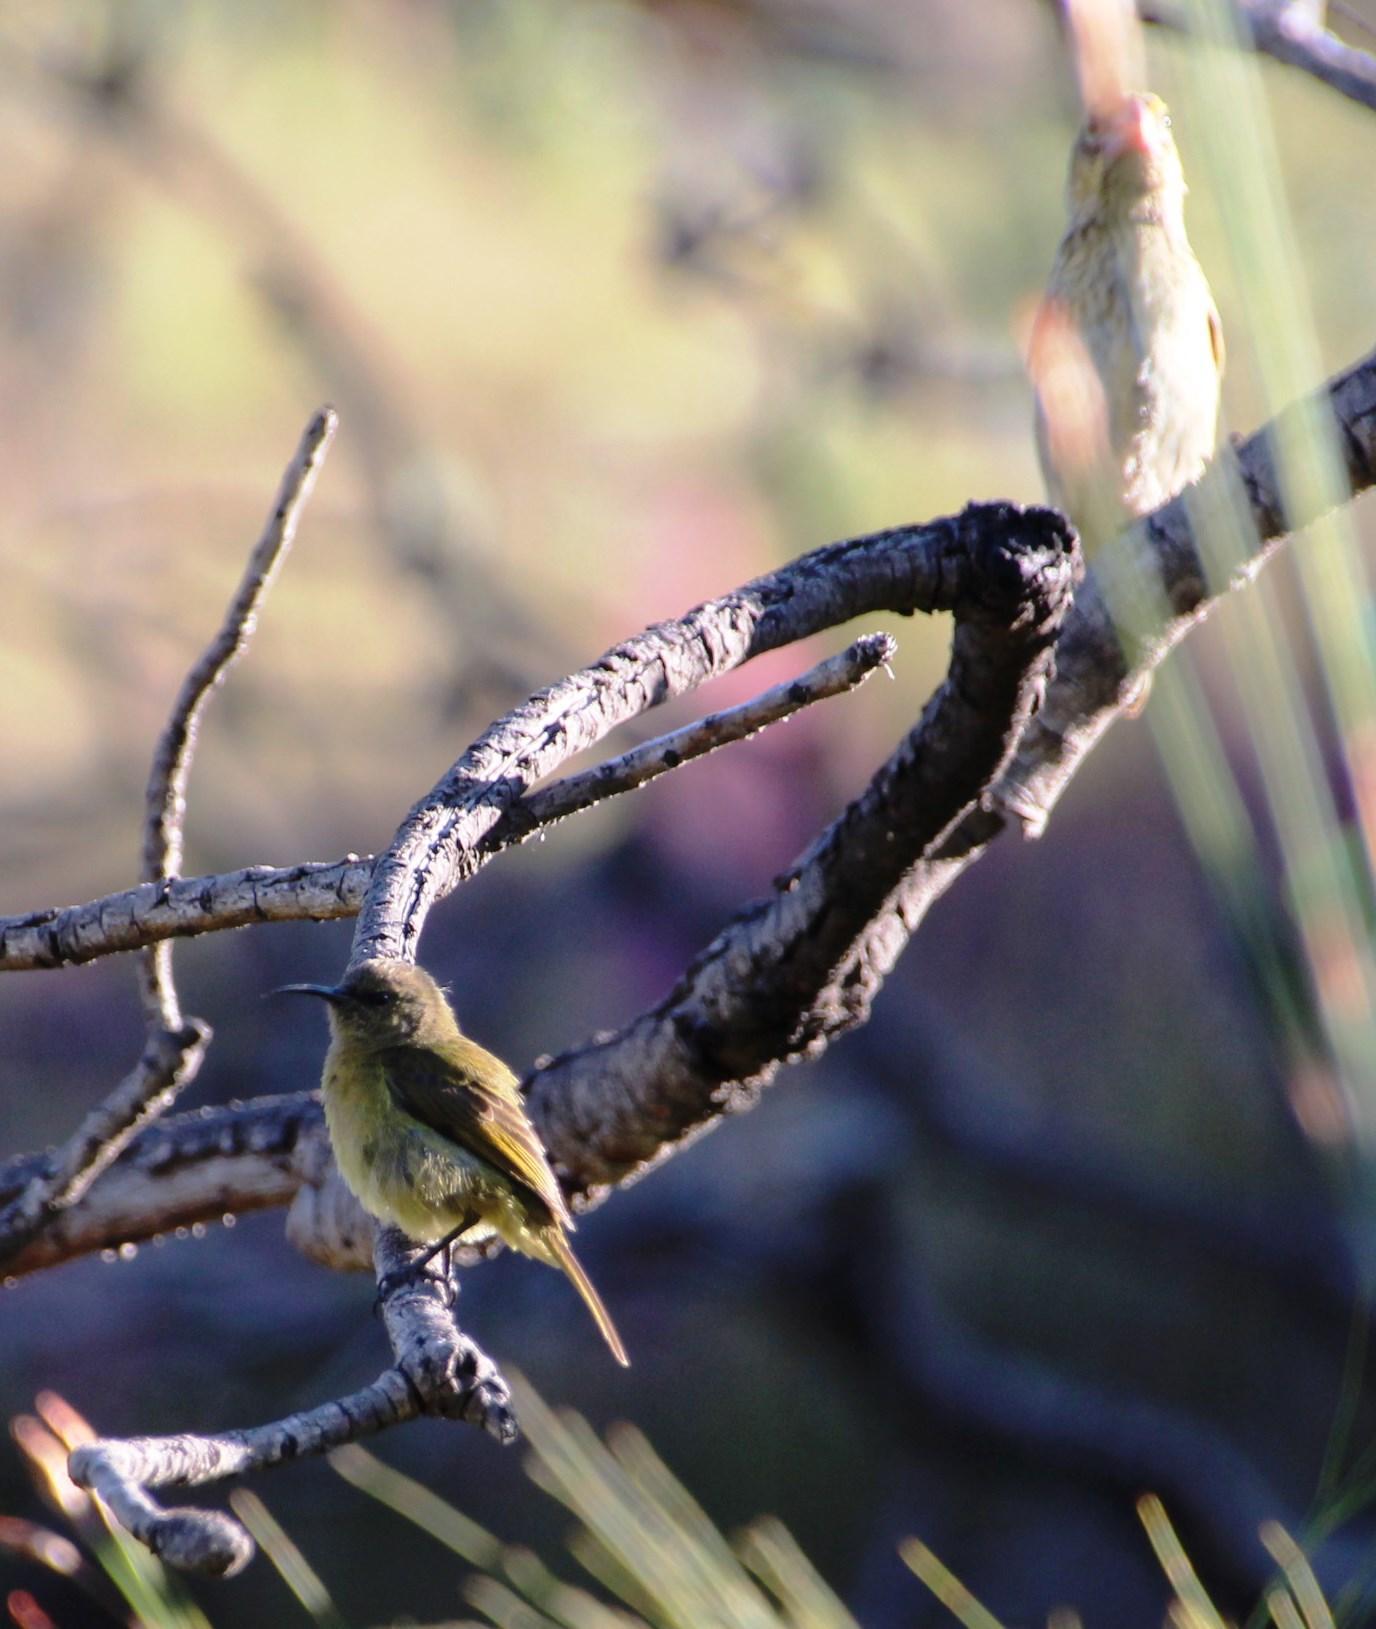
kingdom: Animalia
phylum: Chordata
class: Aves
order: Passeriformes
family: Nectariniidae
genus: Anthobaphes
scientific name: Anthobaphes violacea
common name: Orange-breasted sunbird
